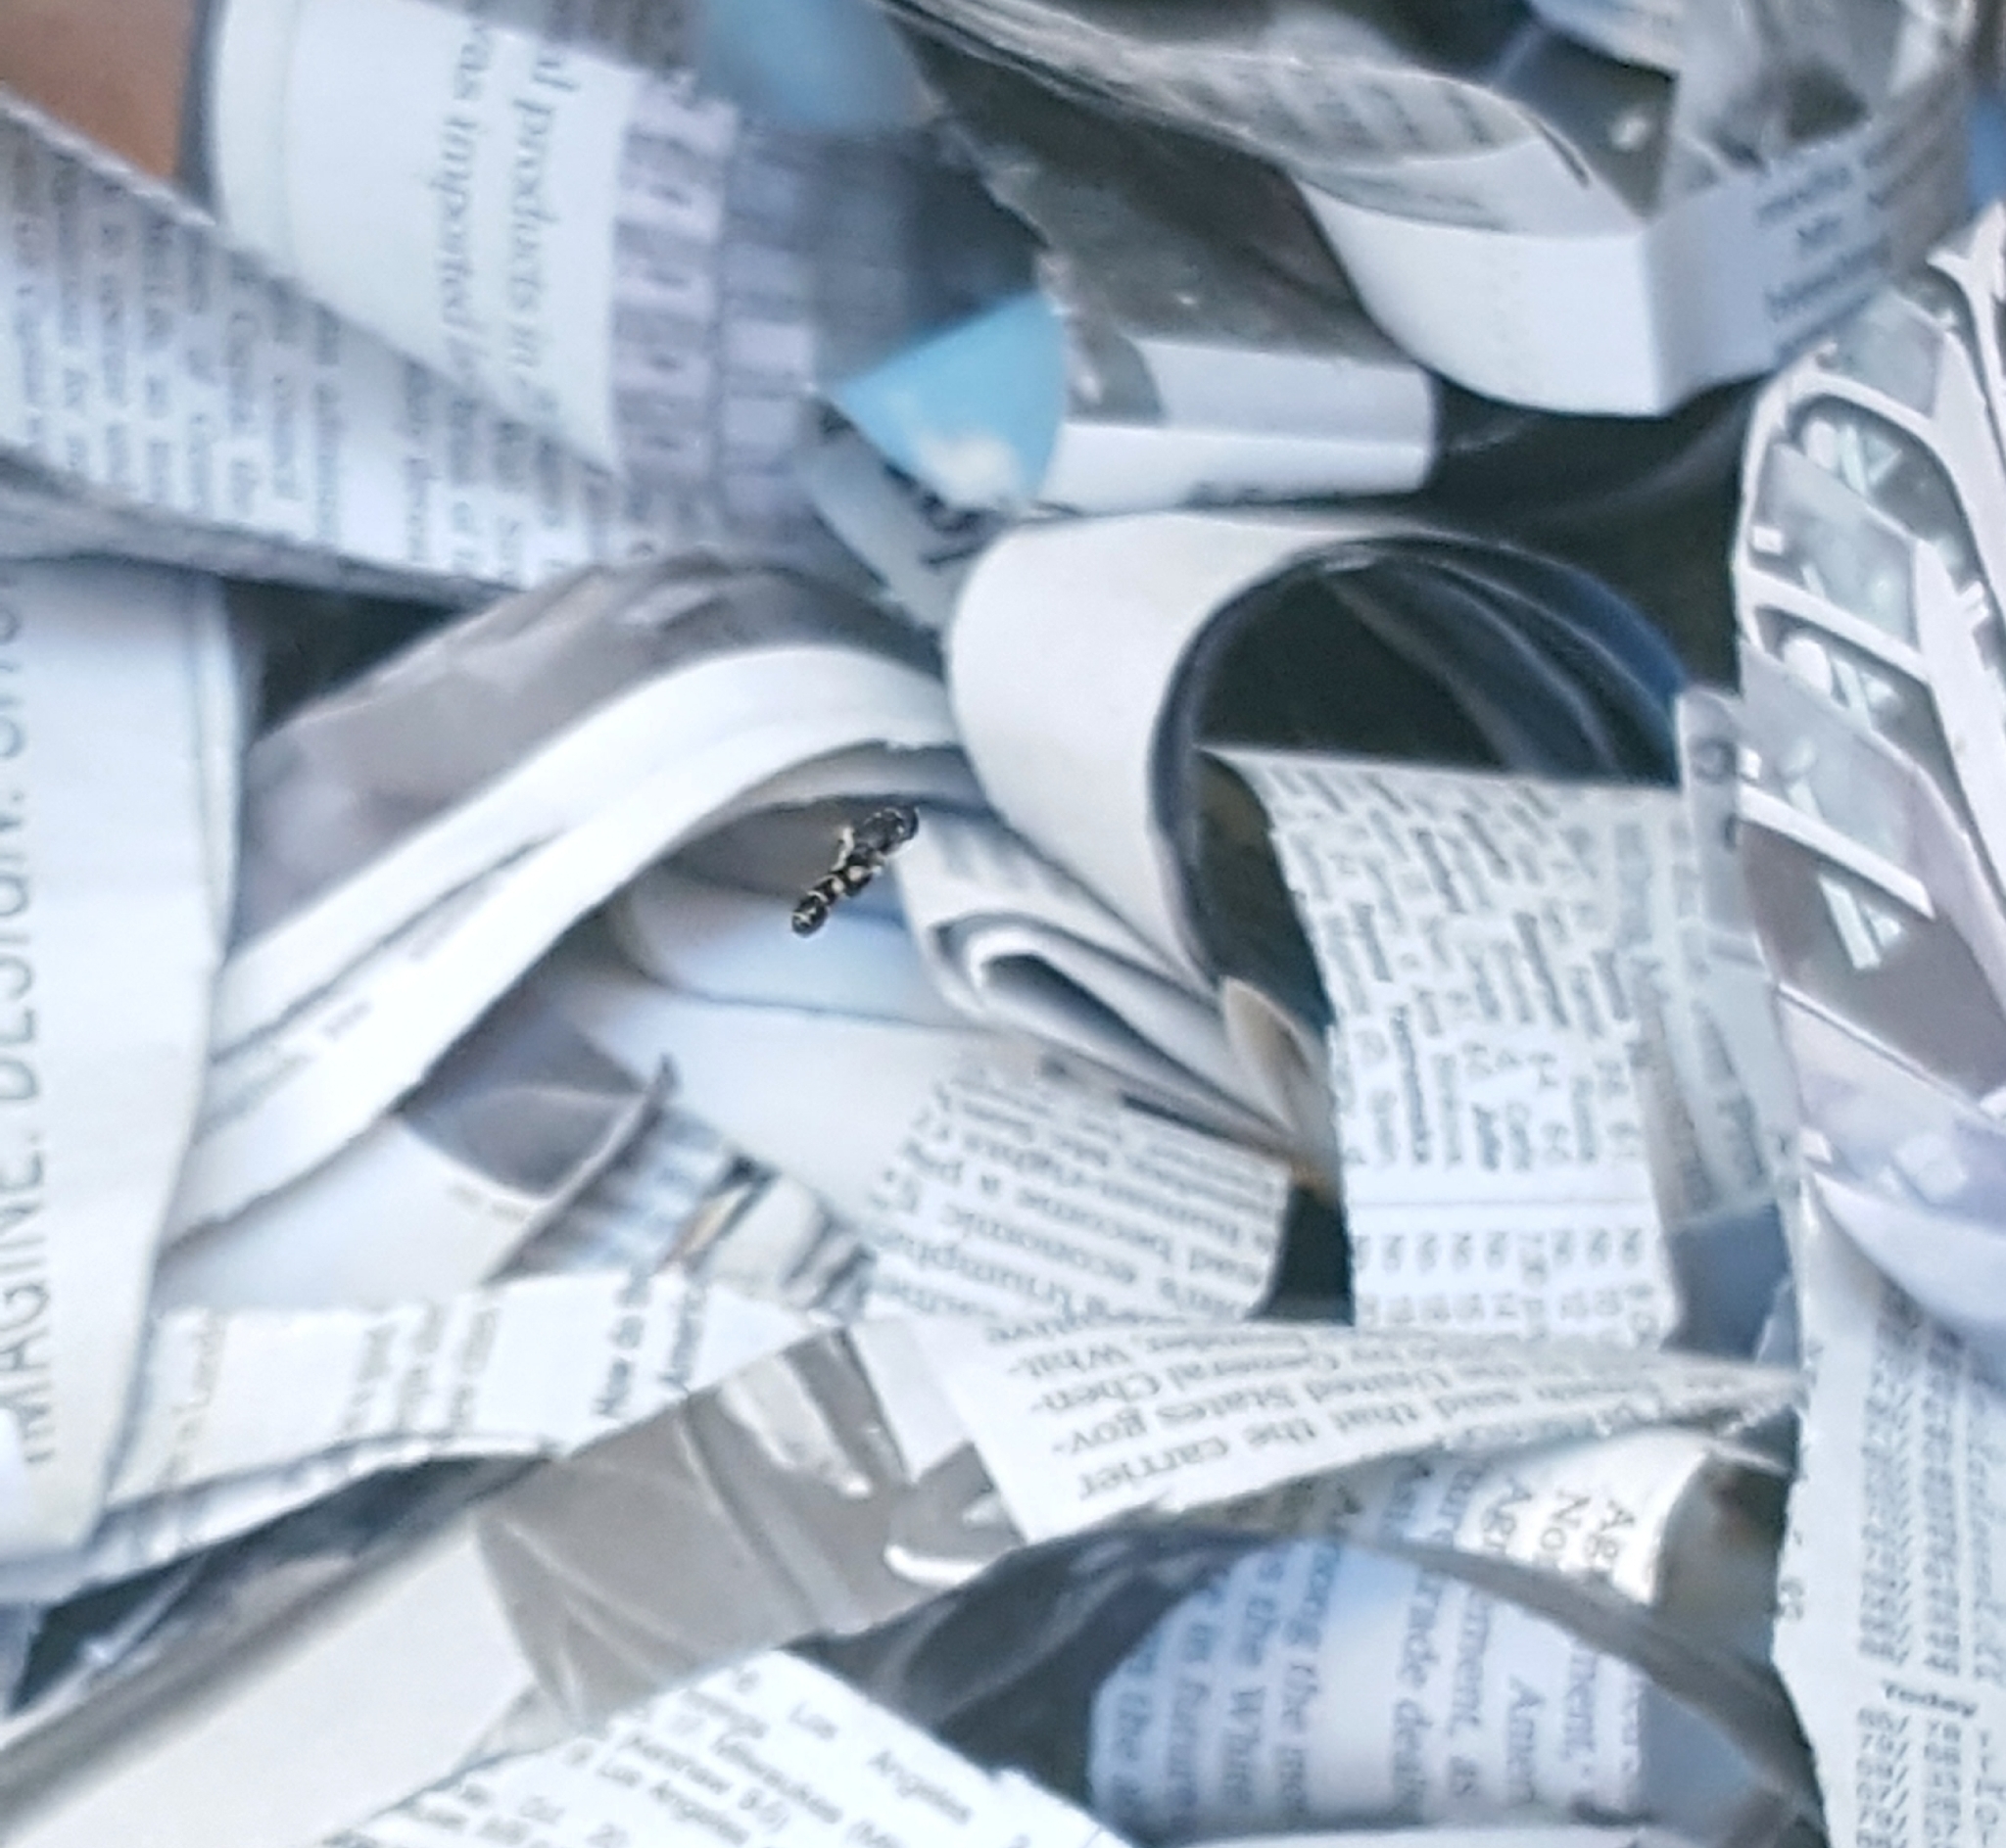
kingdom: Animalia
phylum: Arthropoda
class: Insecta
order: Diptera
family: Syrphidae
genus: Syritta
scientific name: Syritta pipiens
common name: Hover fly
